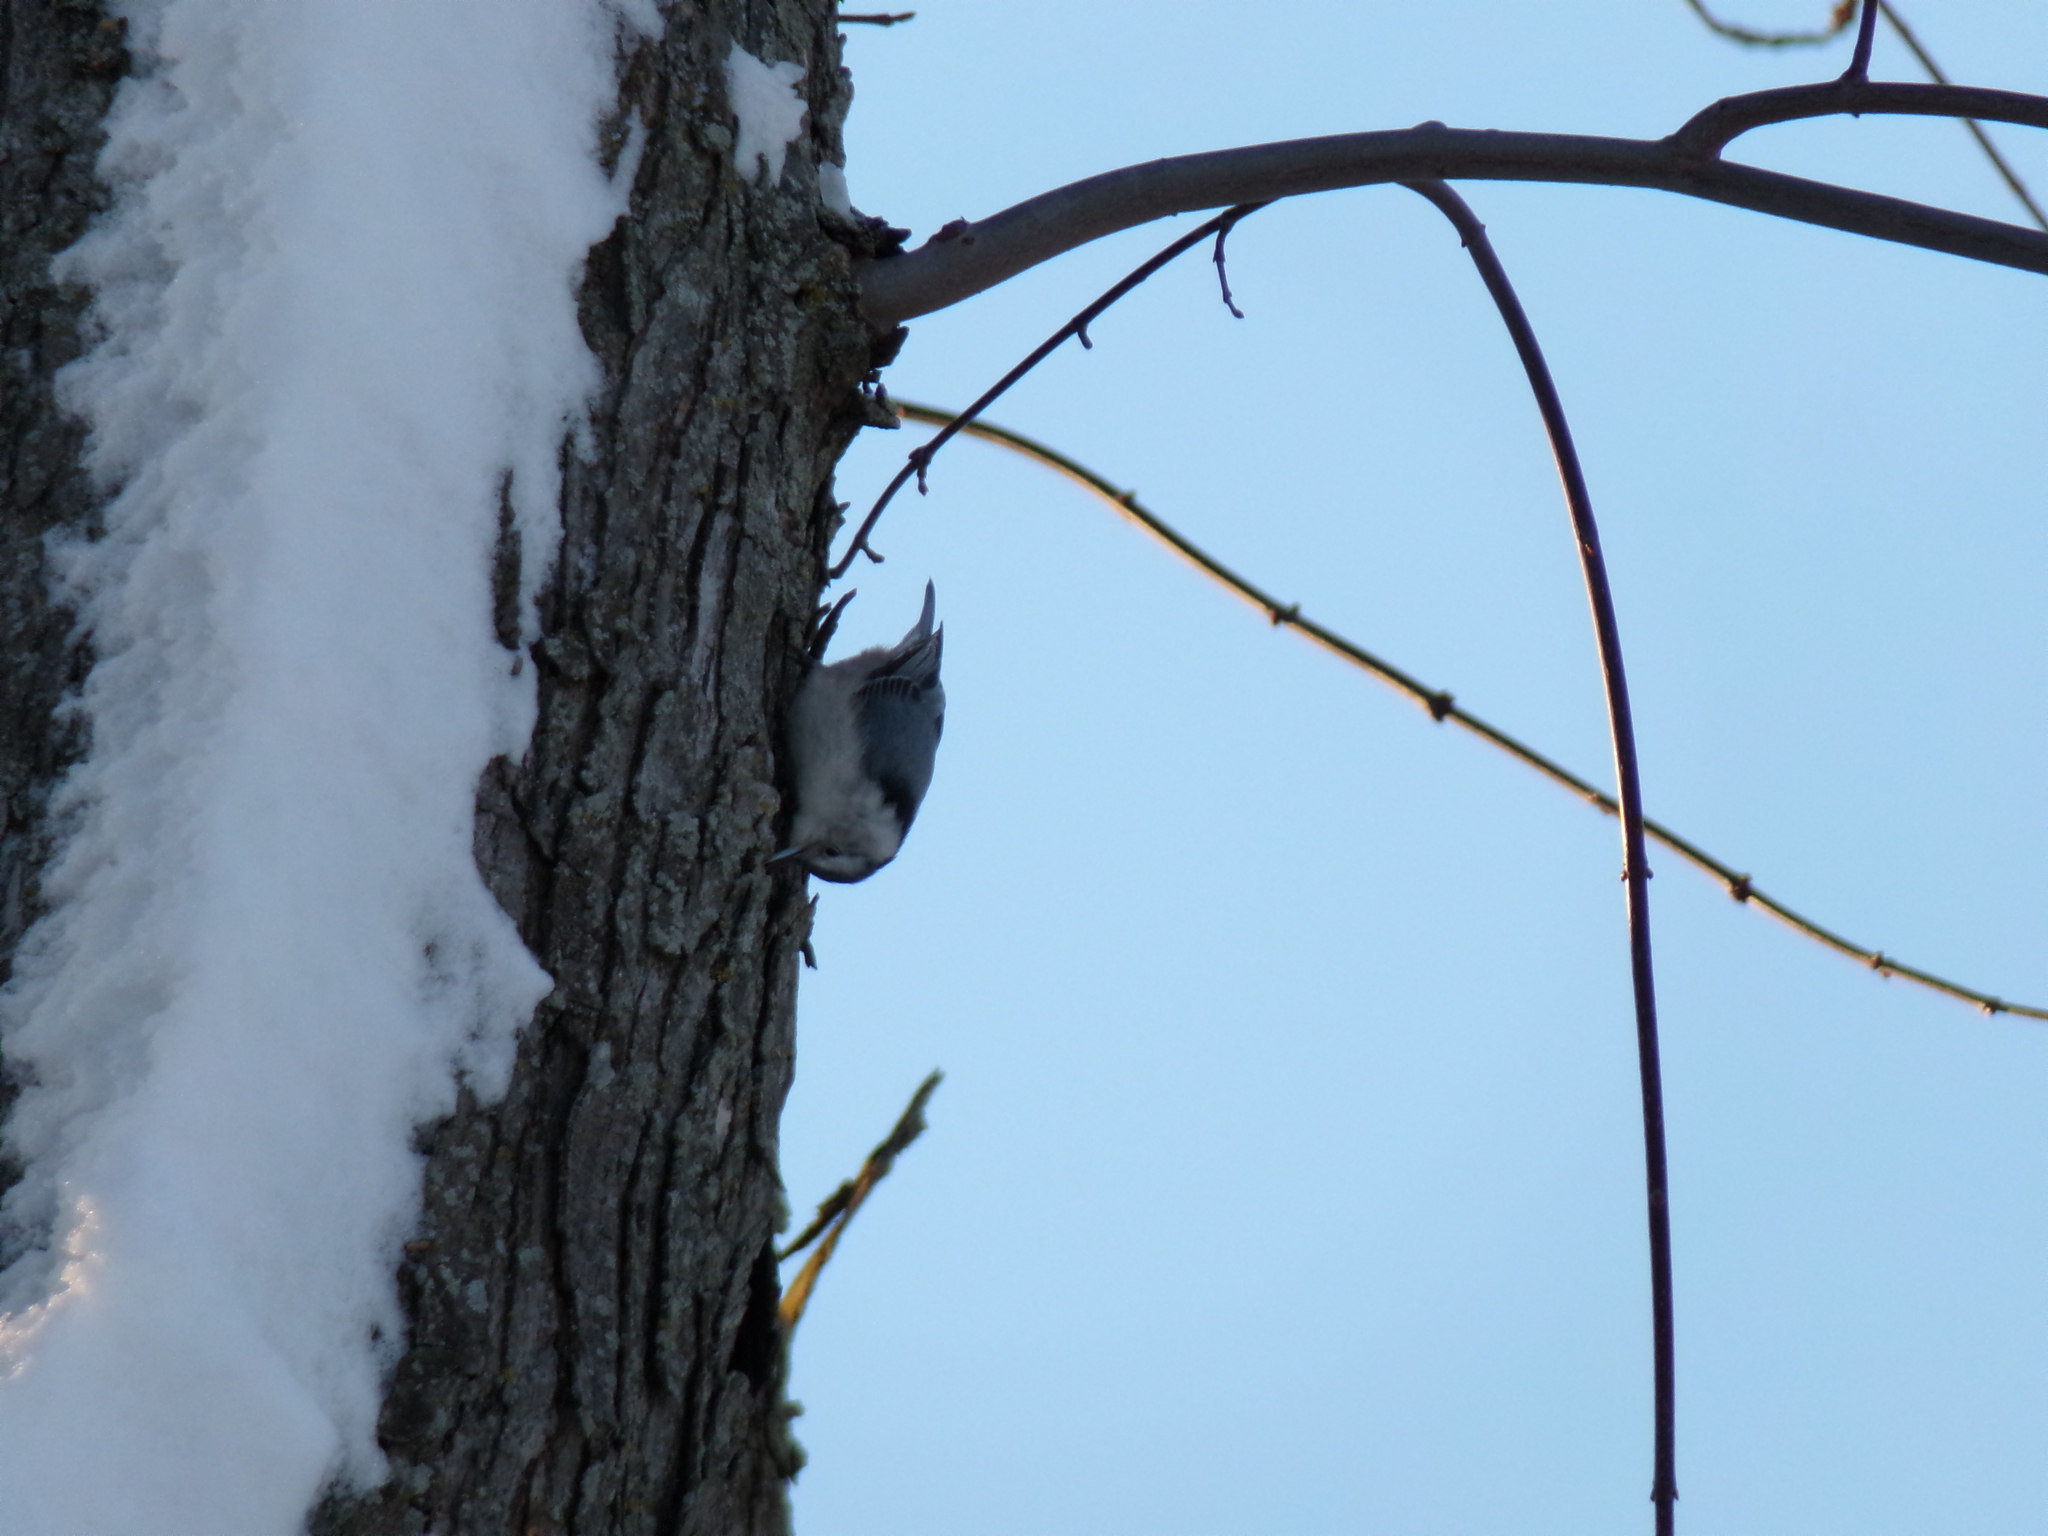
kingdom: Animalia
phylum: Chordata
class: Aves
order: Passeriformes
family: Sittidae
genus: Sitta
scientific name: Sitta carolinensis
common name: White-breasted nuthatch
